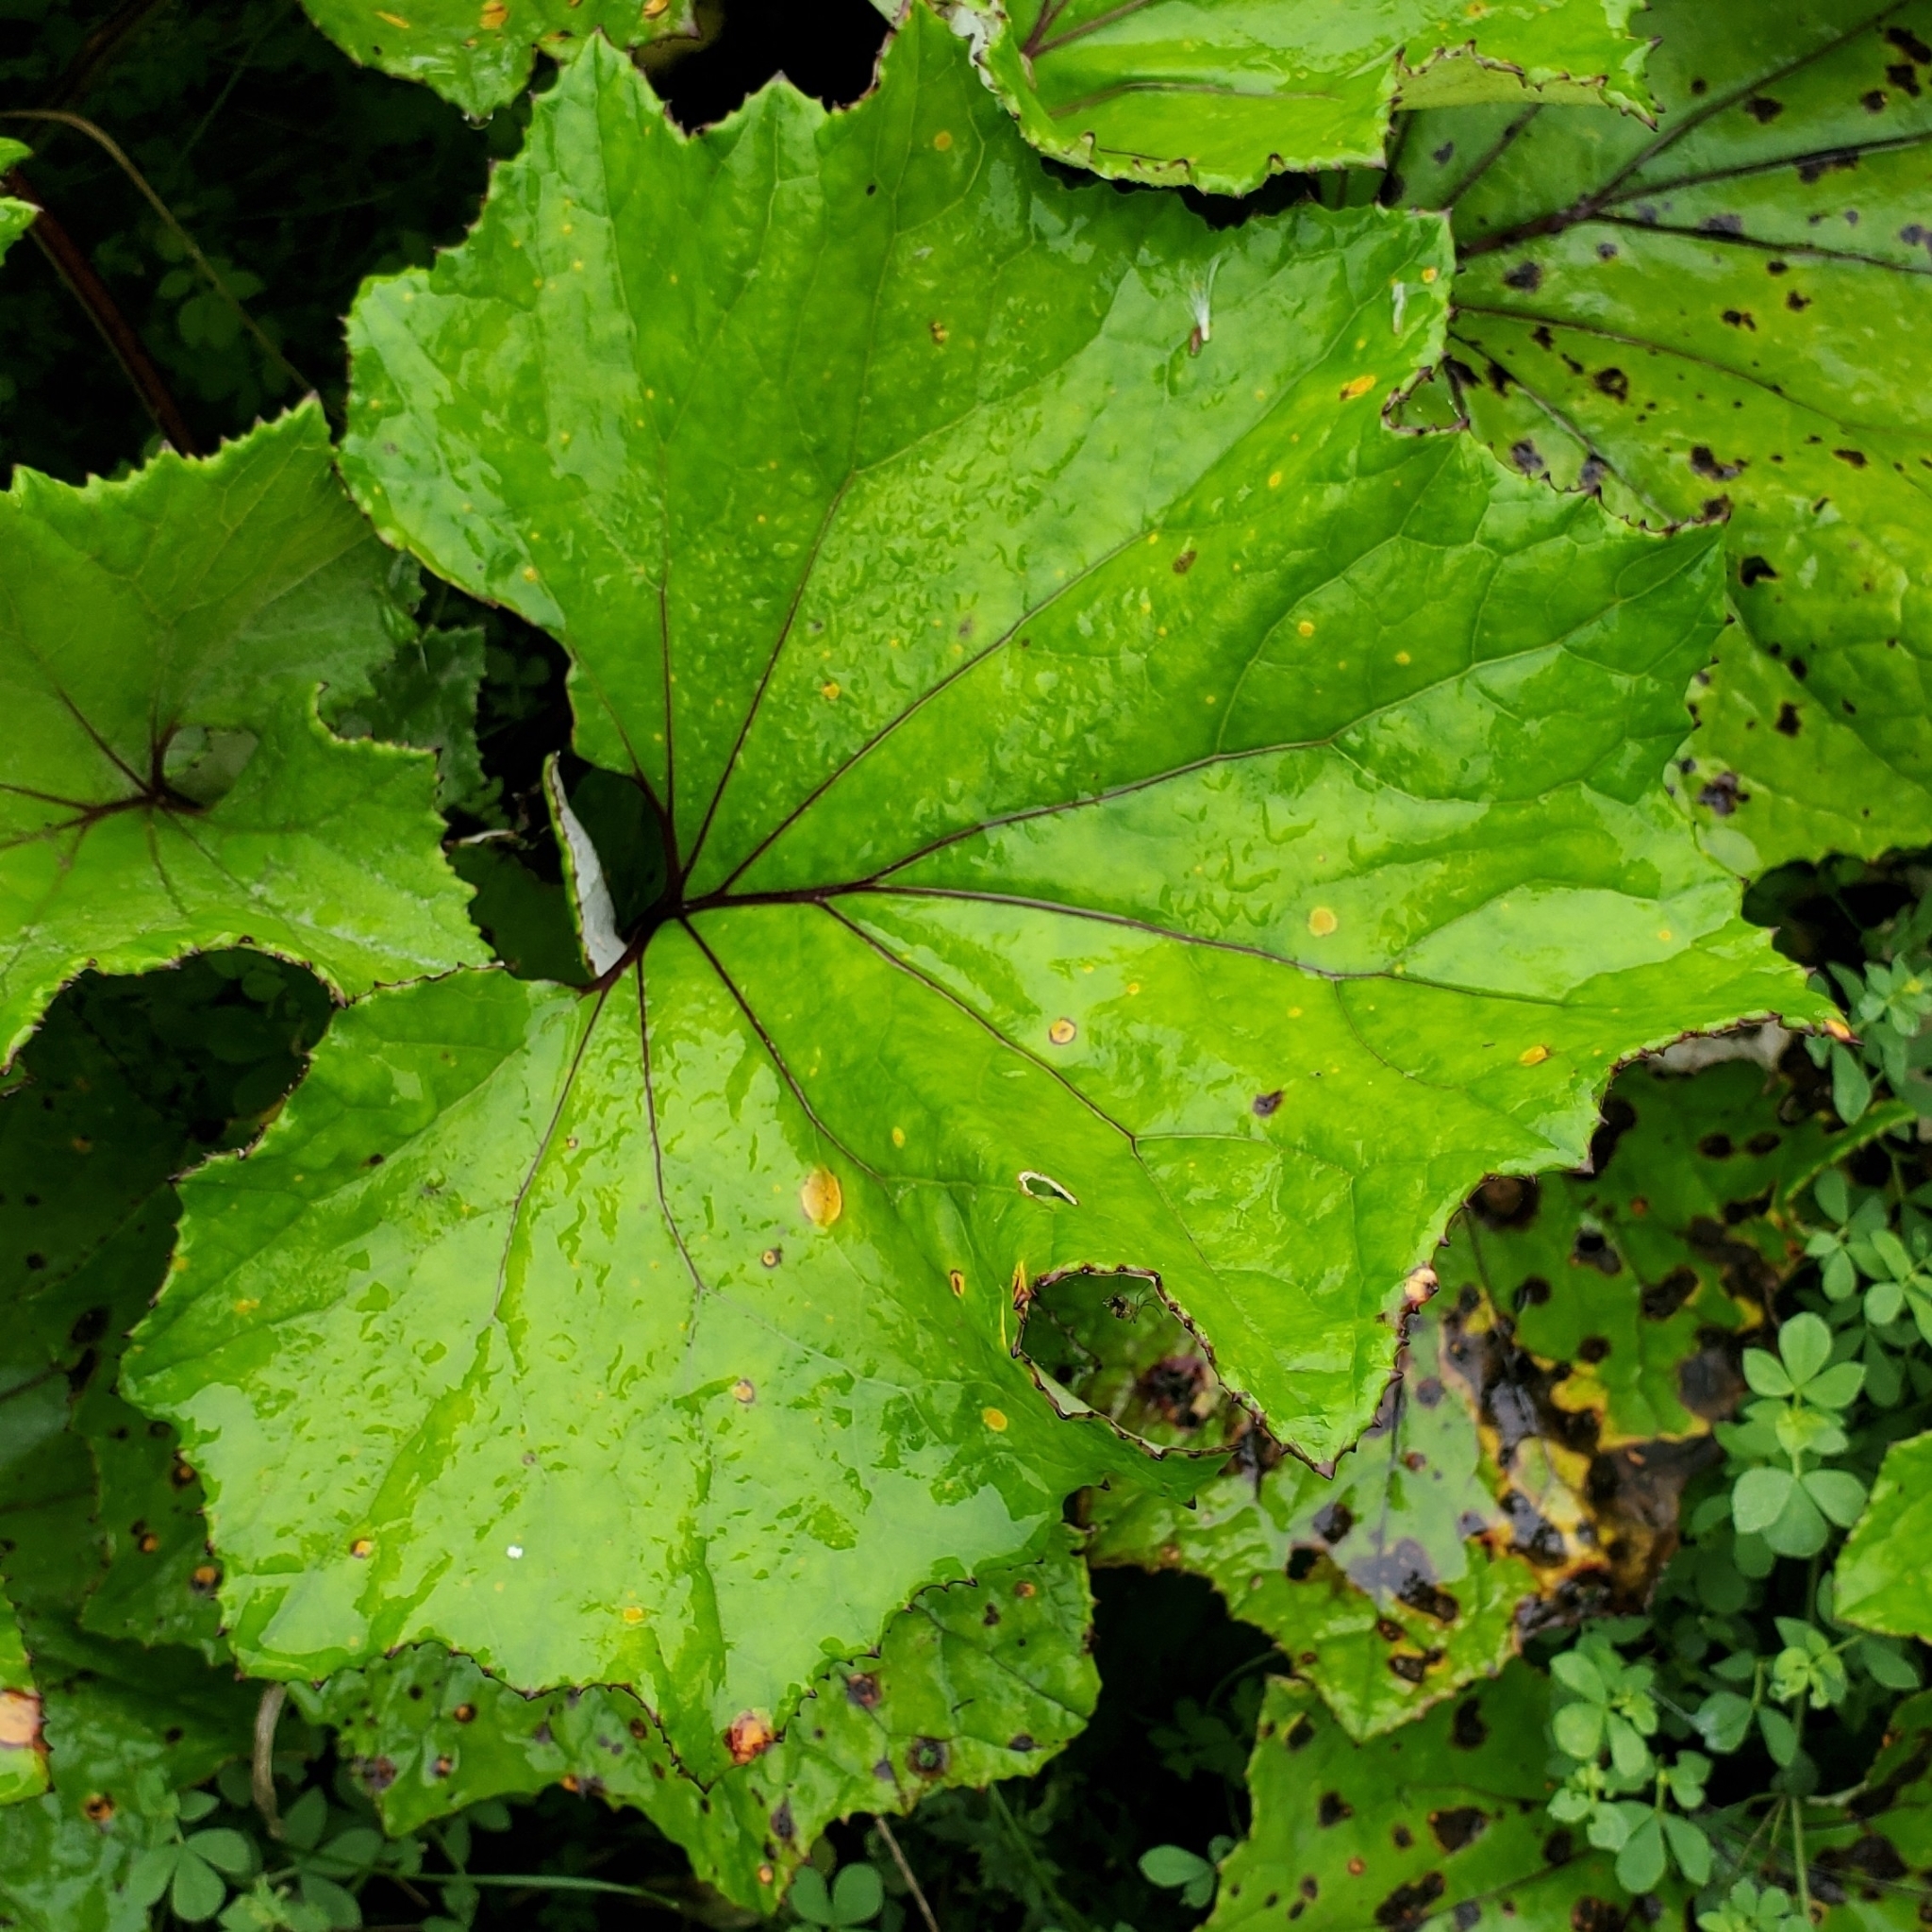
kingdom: Plantae
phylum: Tracheophyta
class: Magnoliopsida
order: Asterales
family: Asteraceae
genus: Tussilago
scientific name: Tussilago farfara
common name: Coltsfoot
